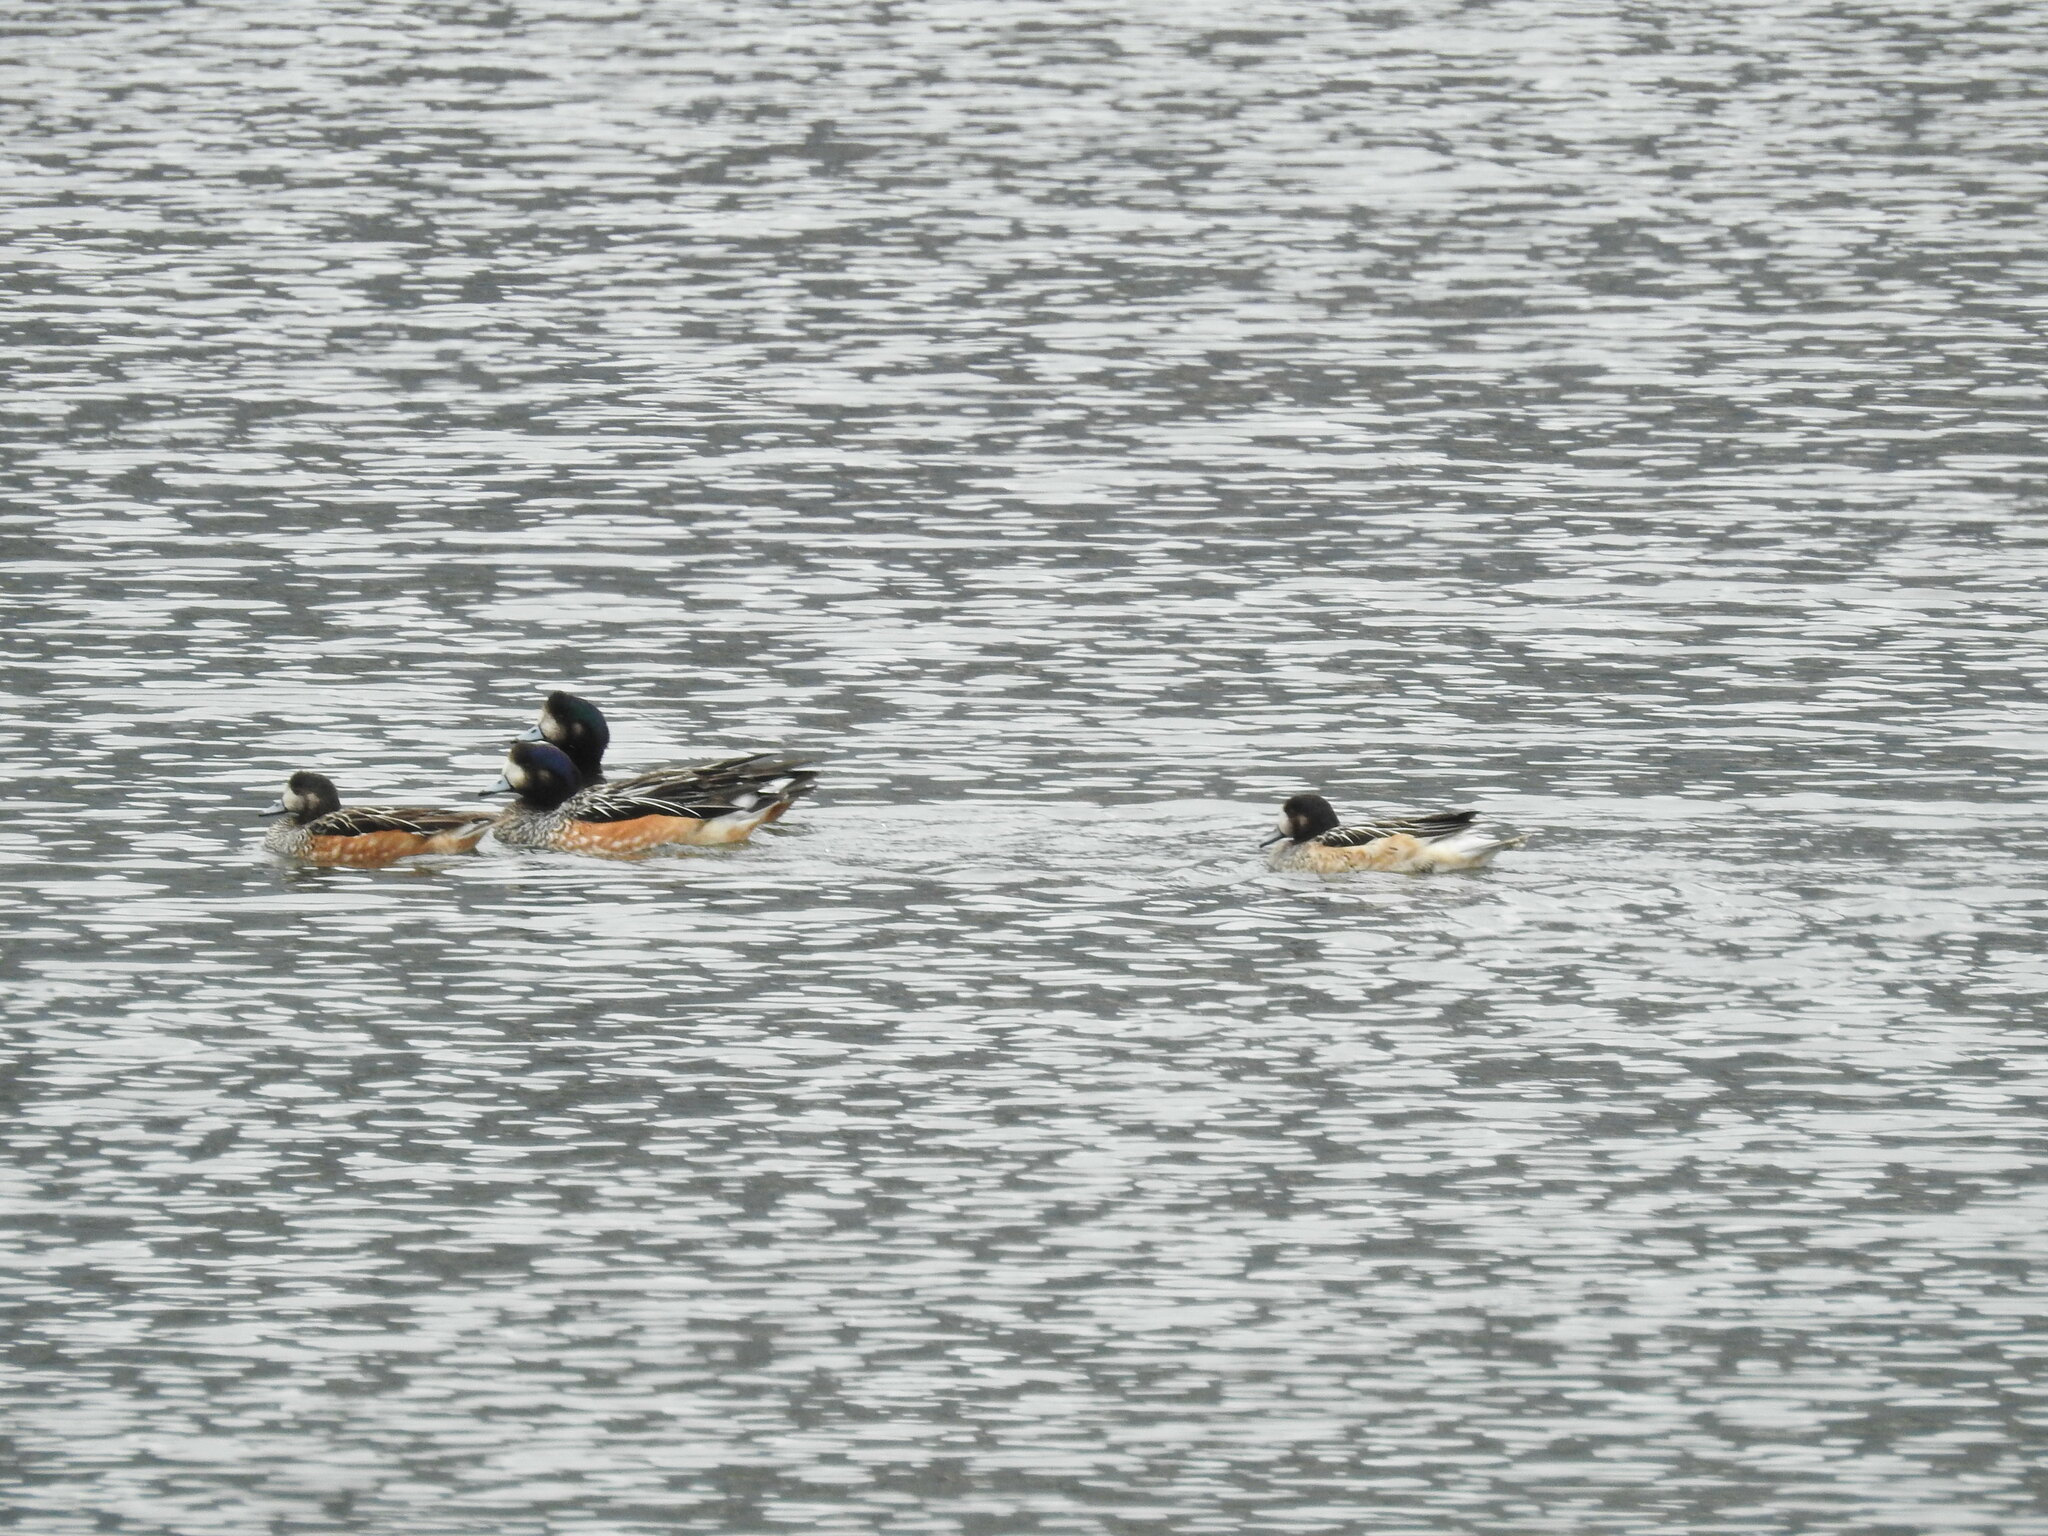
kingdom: Animalia
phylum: Chordata
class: Aves
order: Anseriformes
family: Anatidae
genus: Mareca
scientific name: Mareca sibilatrix
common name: Chiloe wigeon
